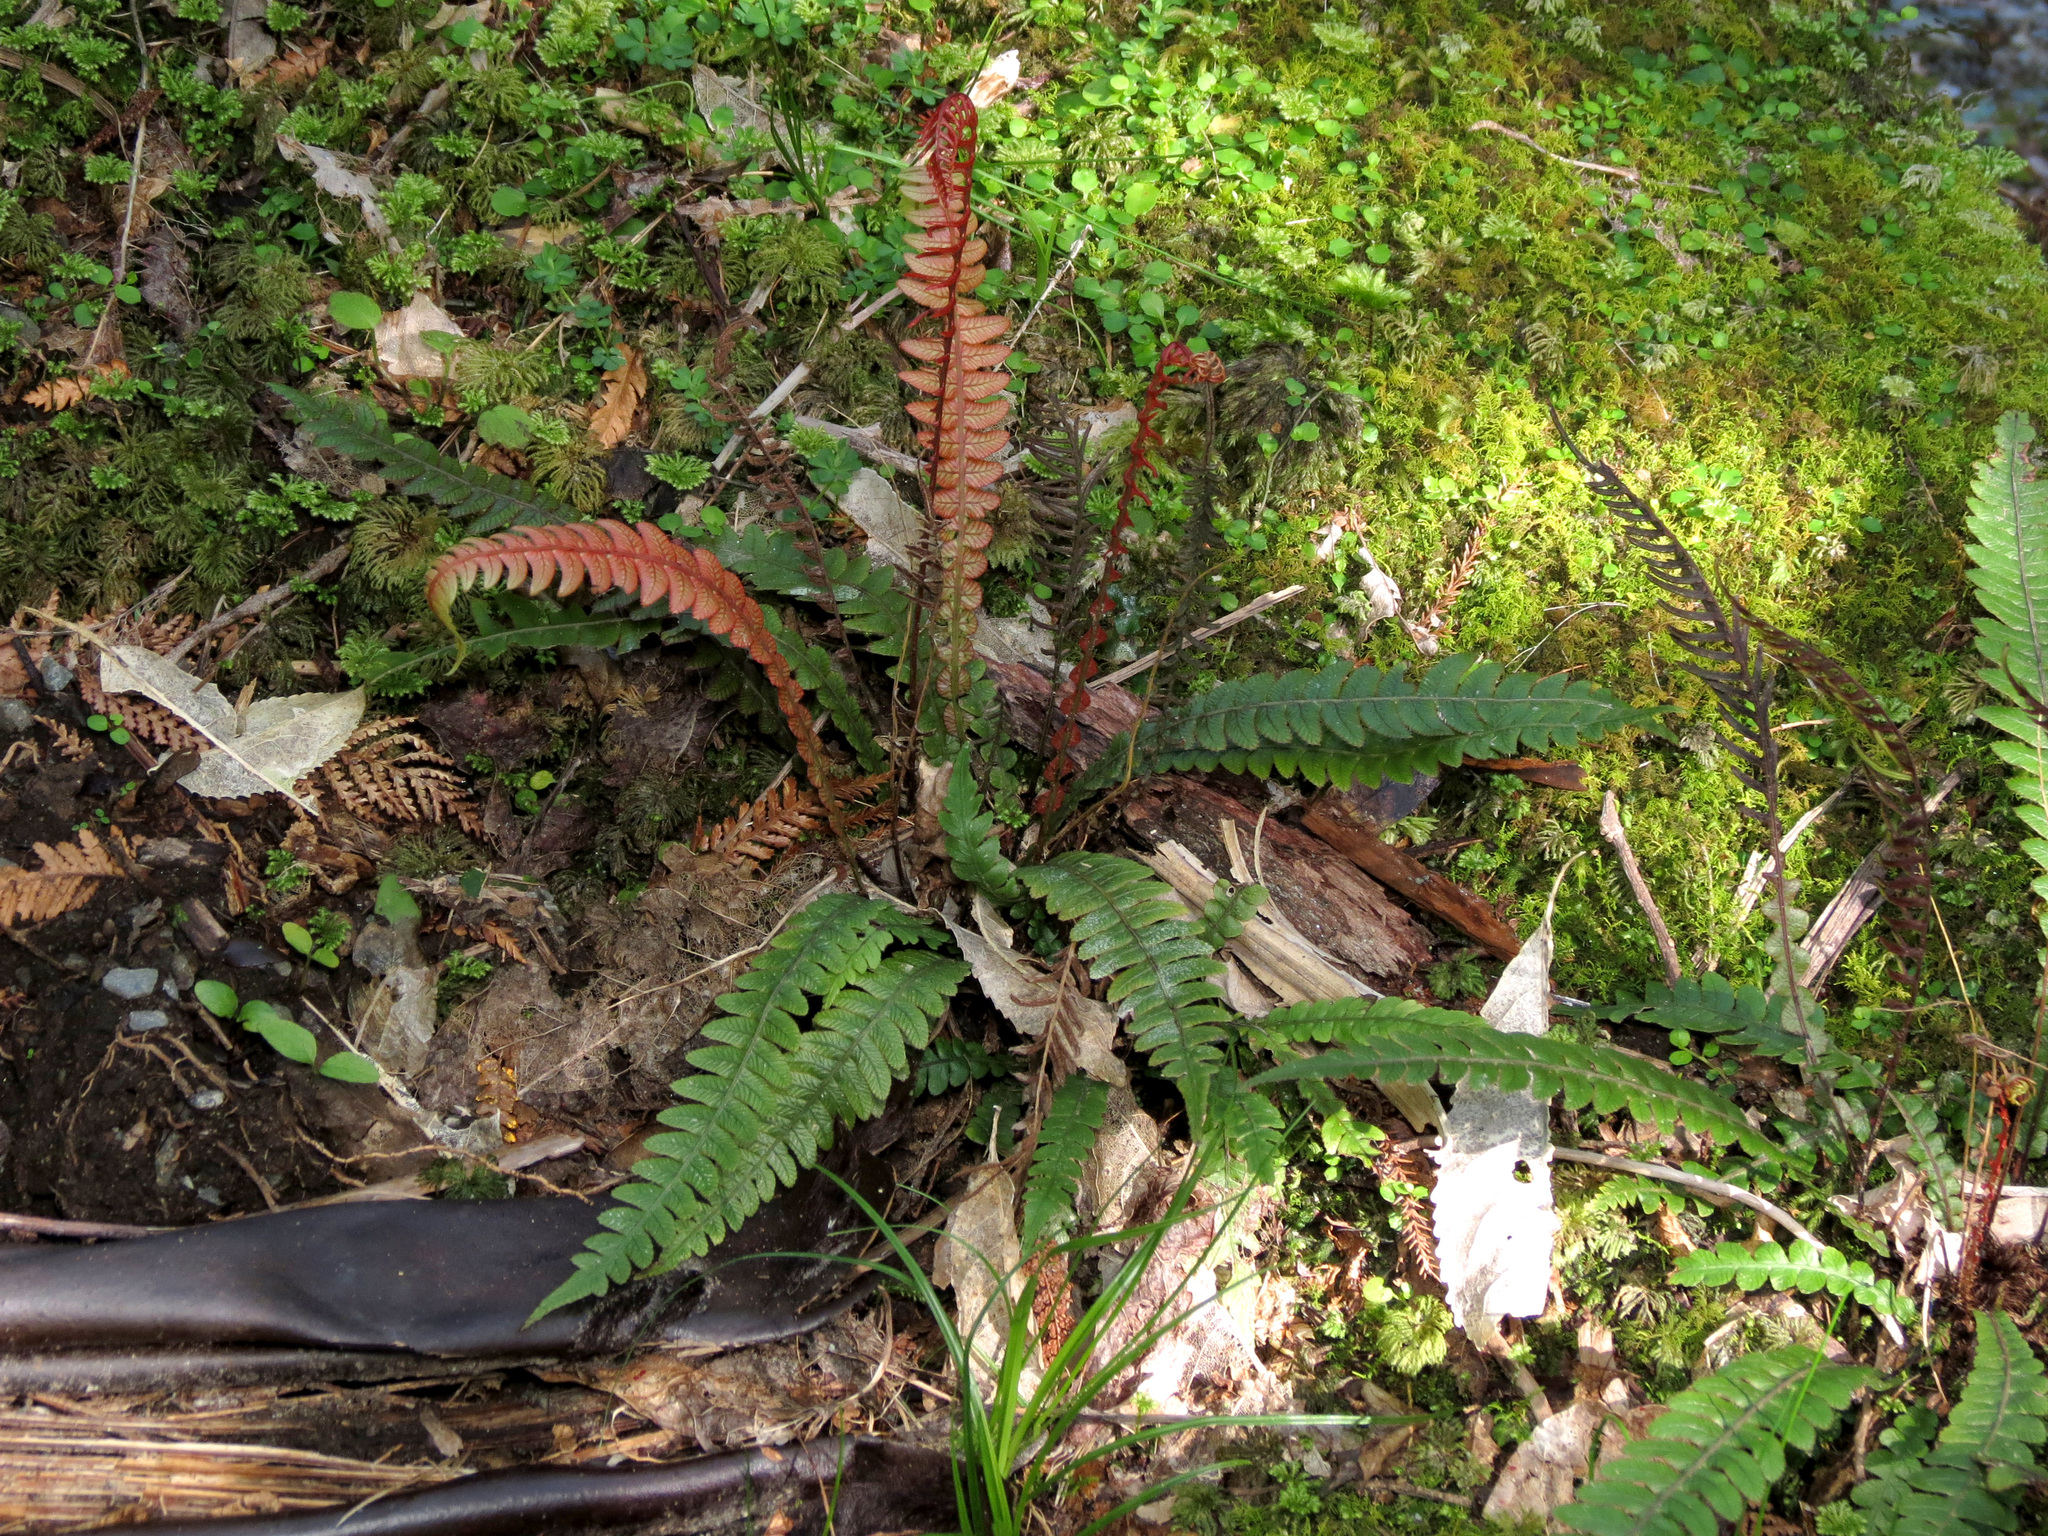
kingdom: Plantae
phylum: Tracheophyta
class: Polypodiopsida
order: Polypodiales
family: Blechnaceae
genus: Austroblechnum
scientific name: Austroblechnum lanceolatum
